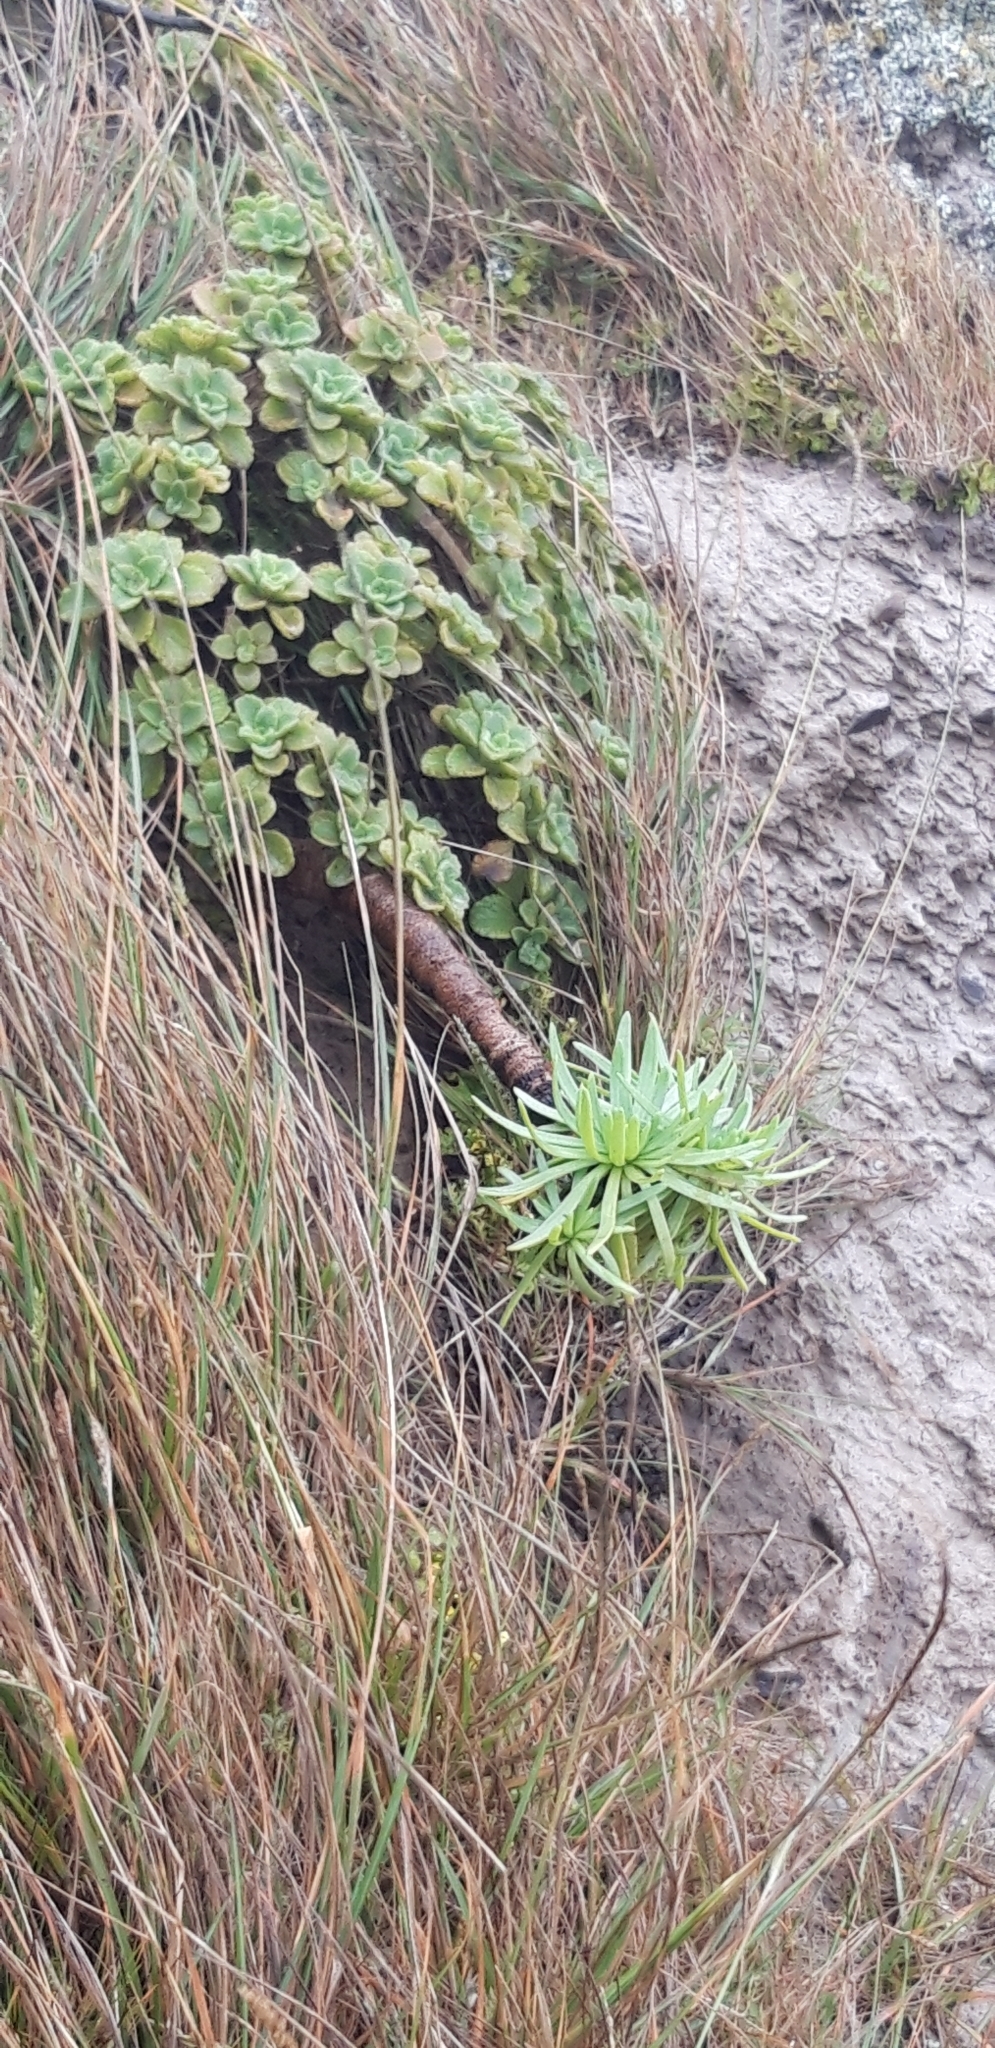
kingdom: Plantae
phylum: Tracheophyta
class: Magnoliopsida
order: Lamiales
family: Plantaginaceae
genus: Plantago
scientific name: Plantago robusta
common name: St helena plantain
